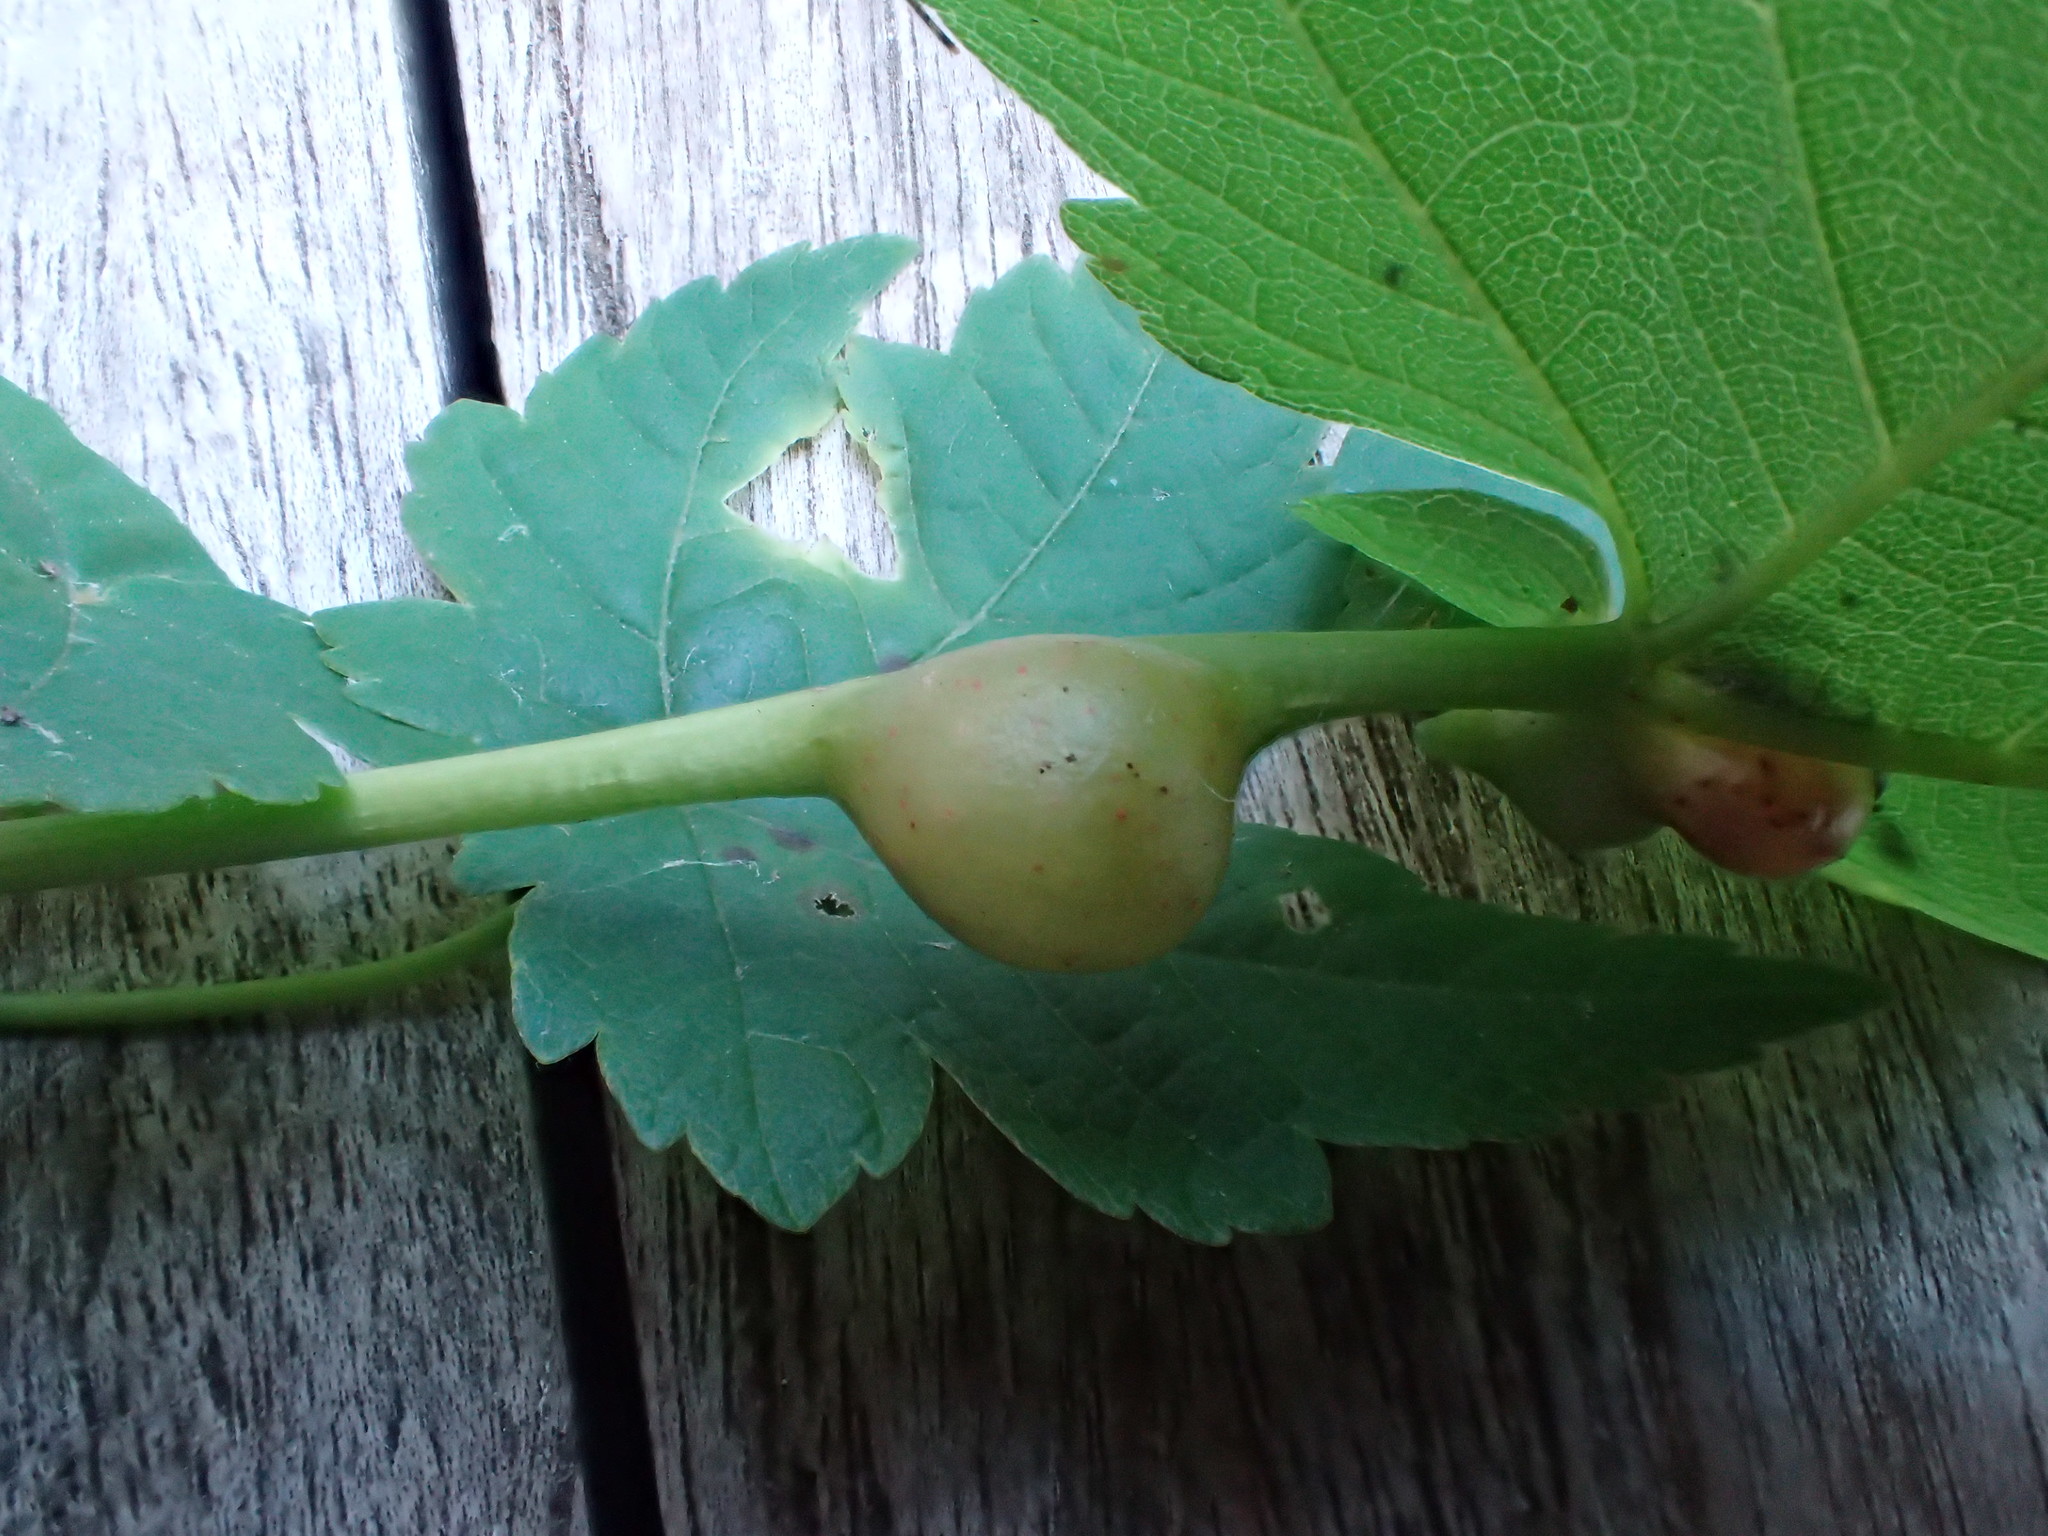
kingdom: Animalia
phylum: Arthropoda
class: Insecta
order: Hymenoptera
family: Cynipidae
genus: Pediaspis
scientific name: Pediaspis aceris
